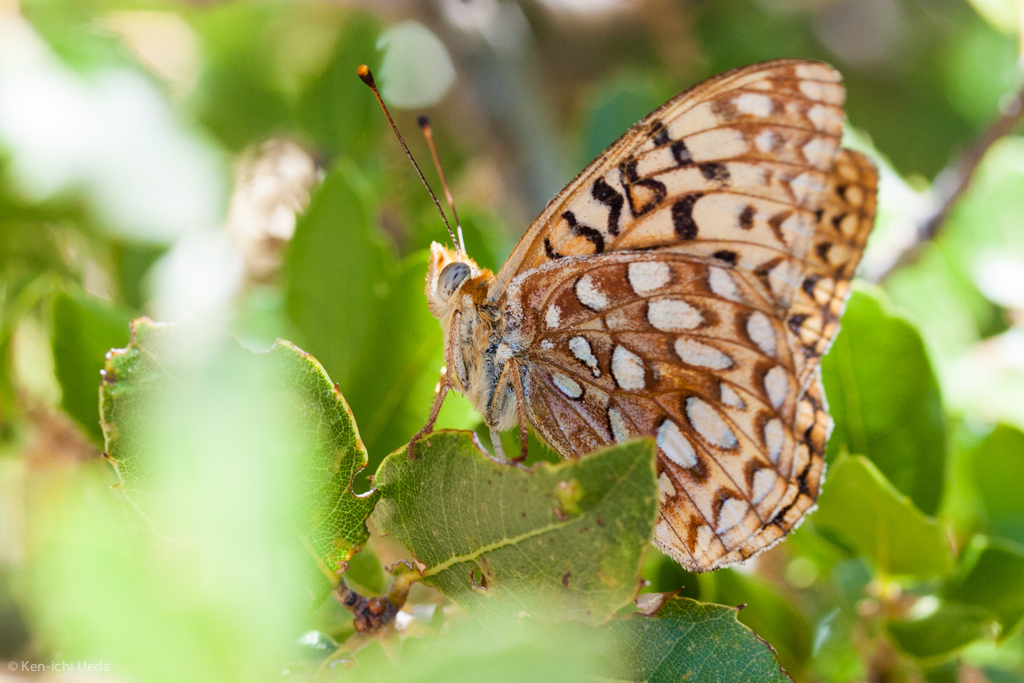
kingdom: Animalia
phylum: Arthropoda
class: Insecta
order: Lepidoptera
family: Nymphalidae
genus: Argynnis
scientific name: Argynnis coronis
